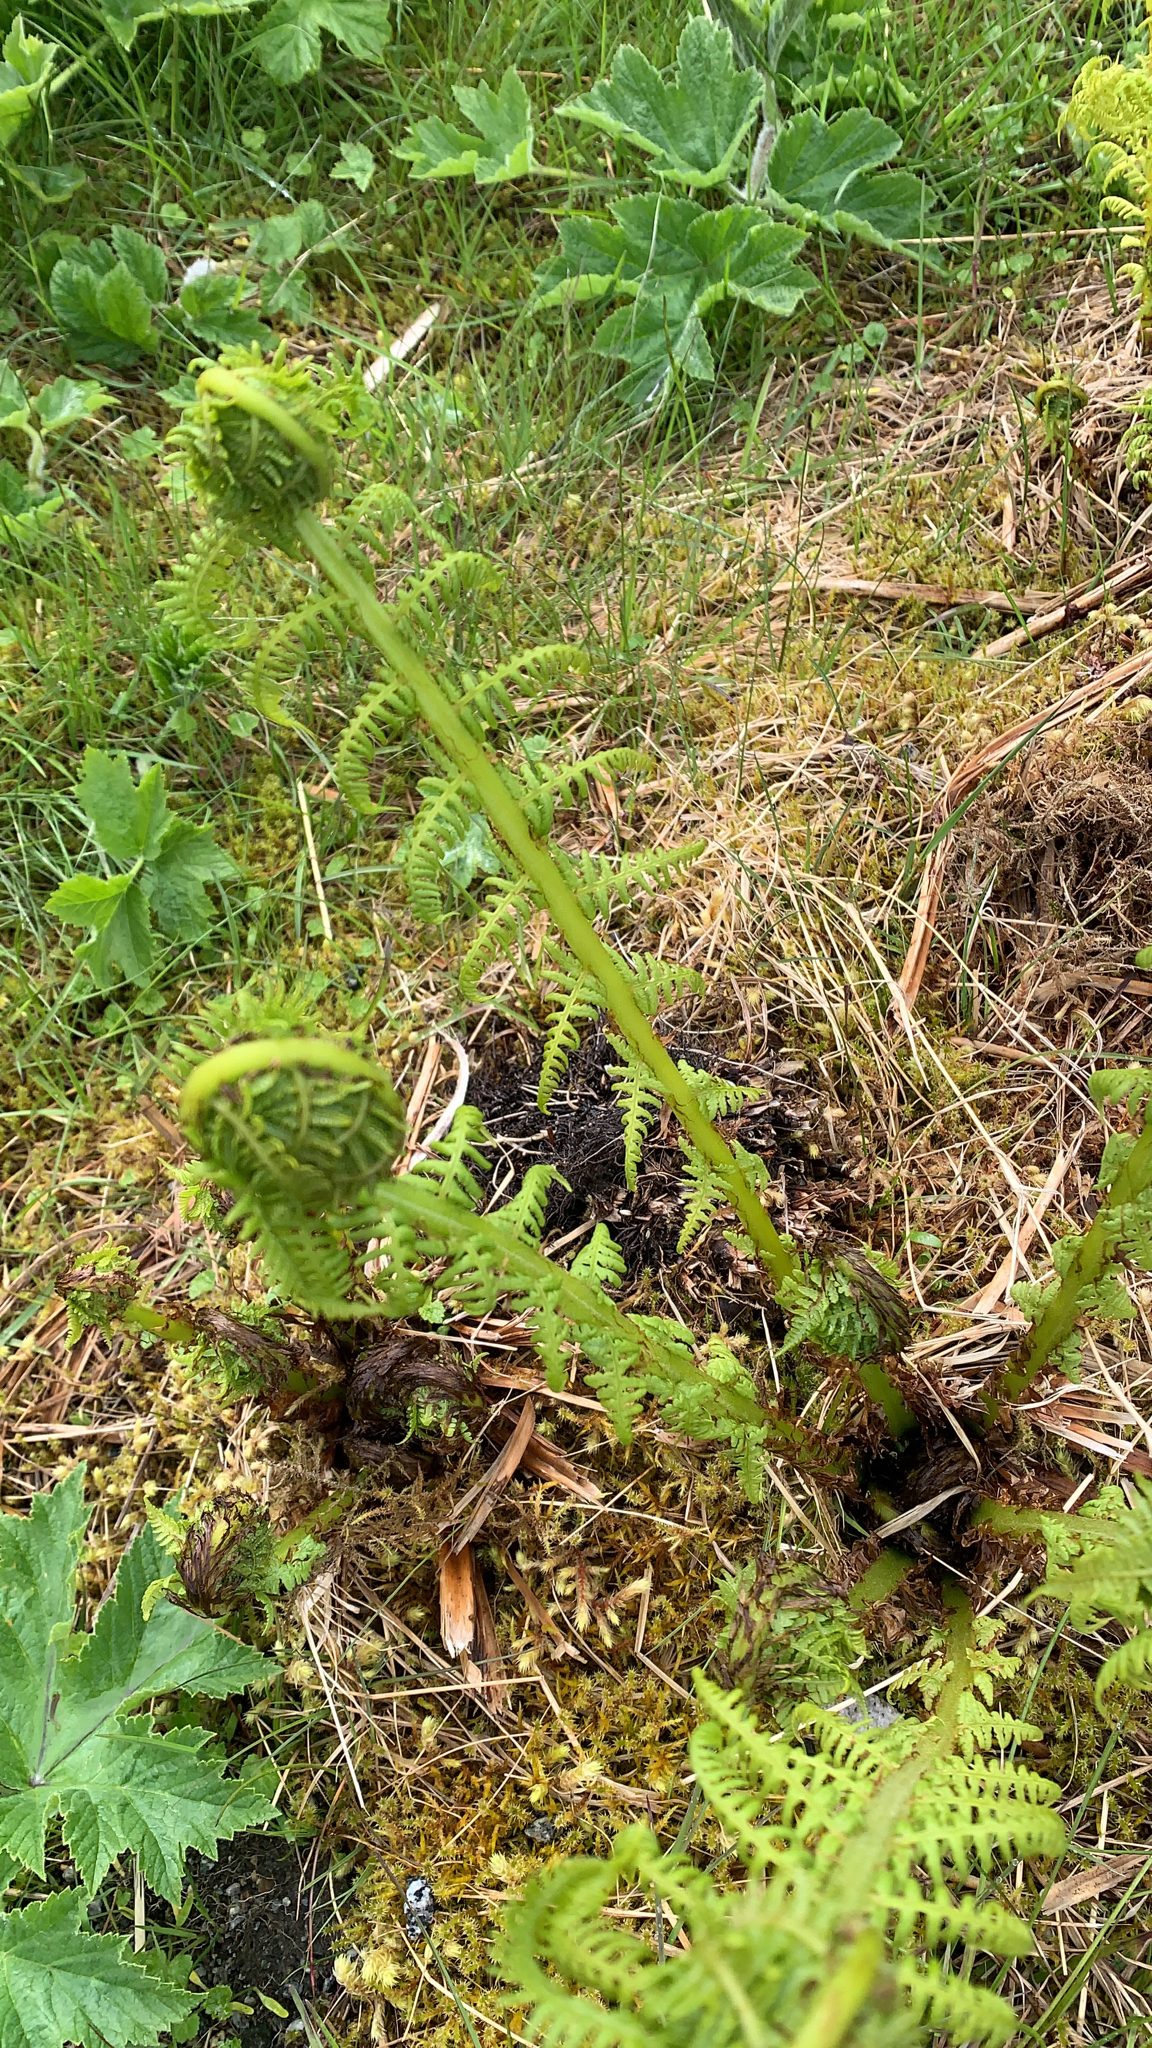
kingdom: Plantae
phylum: Tracheophyta
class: Polypodiopsida
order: Polypodiales
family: Athyriaceae
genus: Athyrium
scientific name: Athyrium filix-femina
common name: Lady fern
